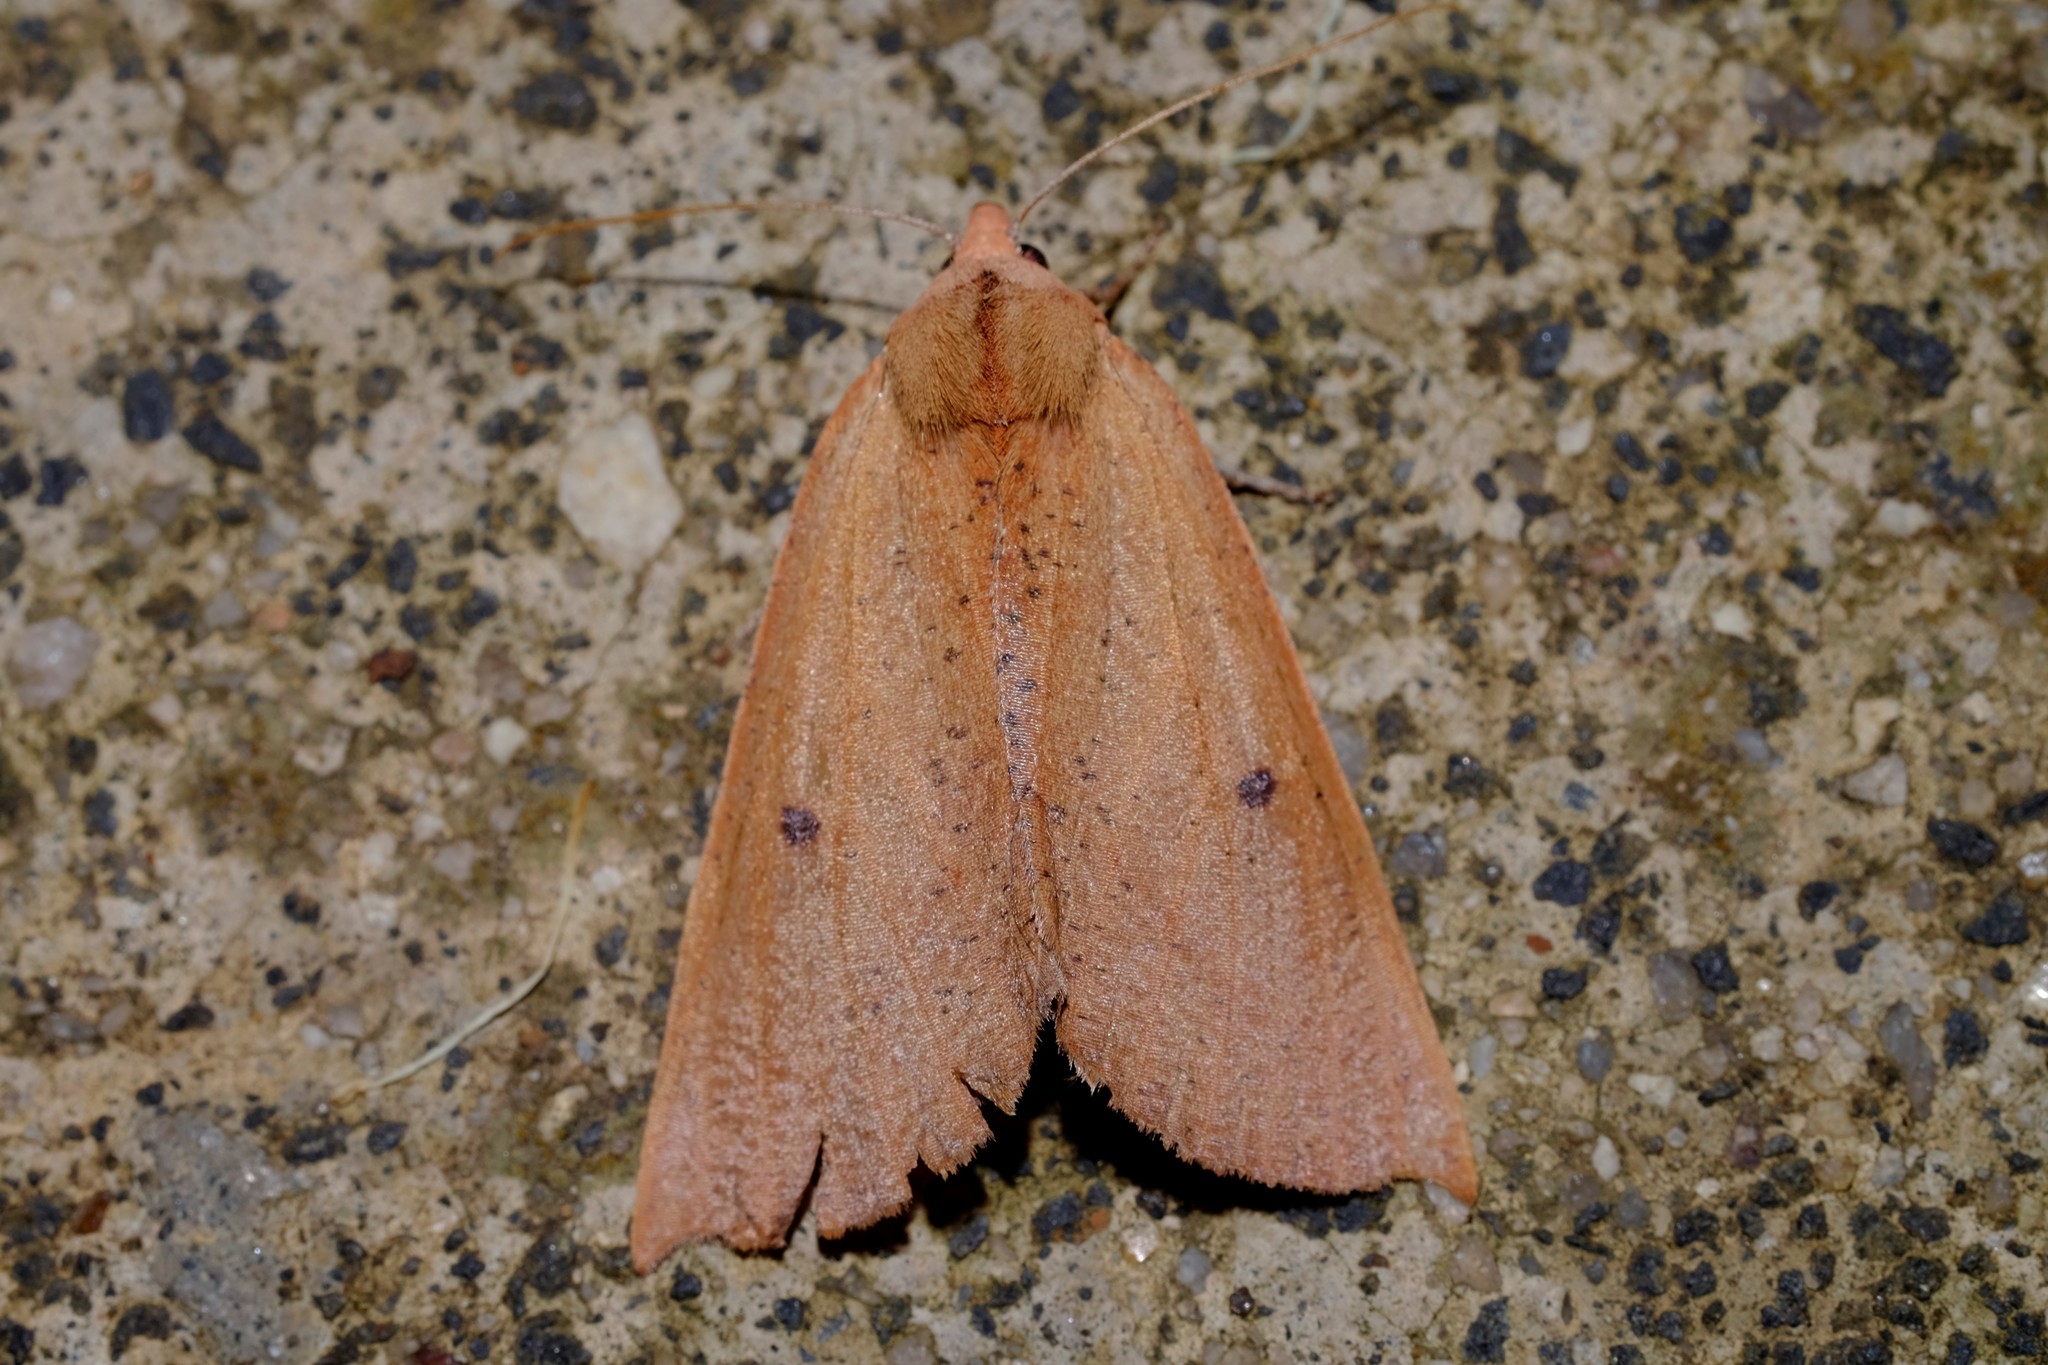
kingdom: Animalia
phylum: Arthropoda
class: Insecta
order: Lepidoptera
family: Geometridae
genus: Fisera
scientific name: Fisera hypoleuca
